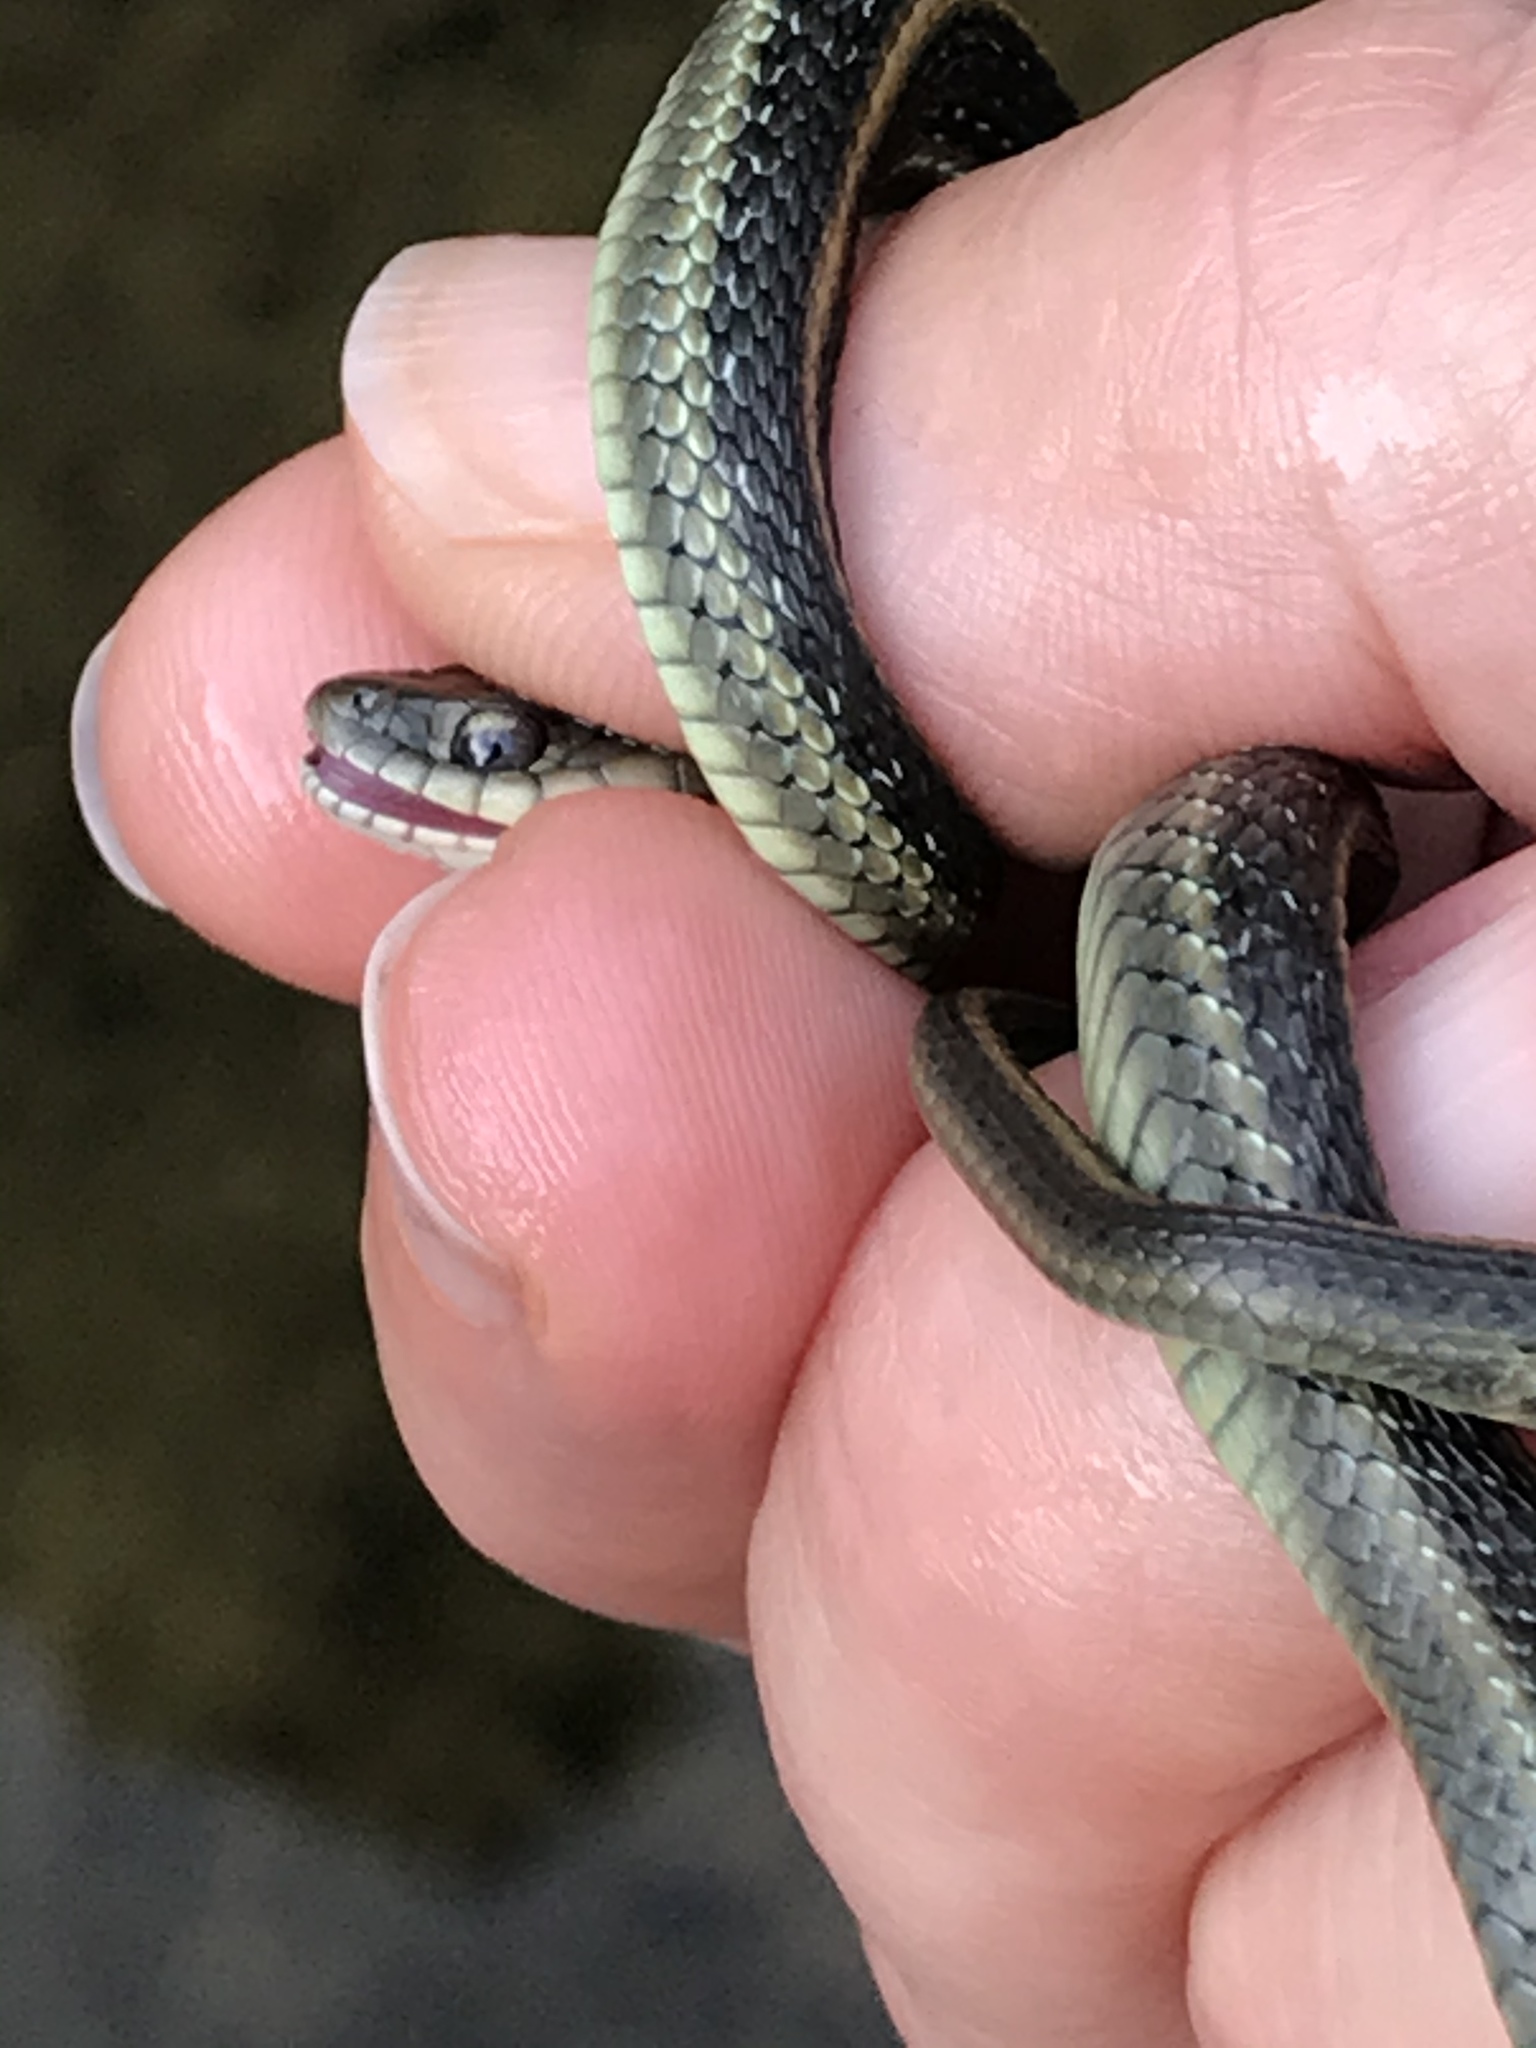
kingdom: Animalia
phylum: Chordata
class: Squamata
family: Colubridae
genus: Thamnophis
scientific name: Thamnophis atratus
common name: Pacific coast aquatic garter snake
